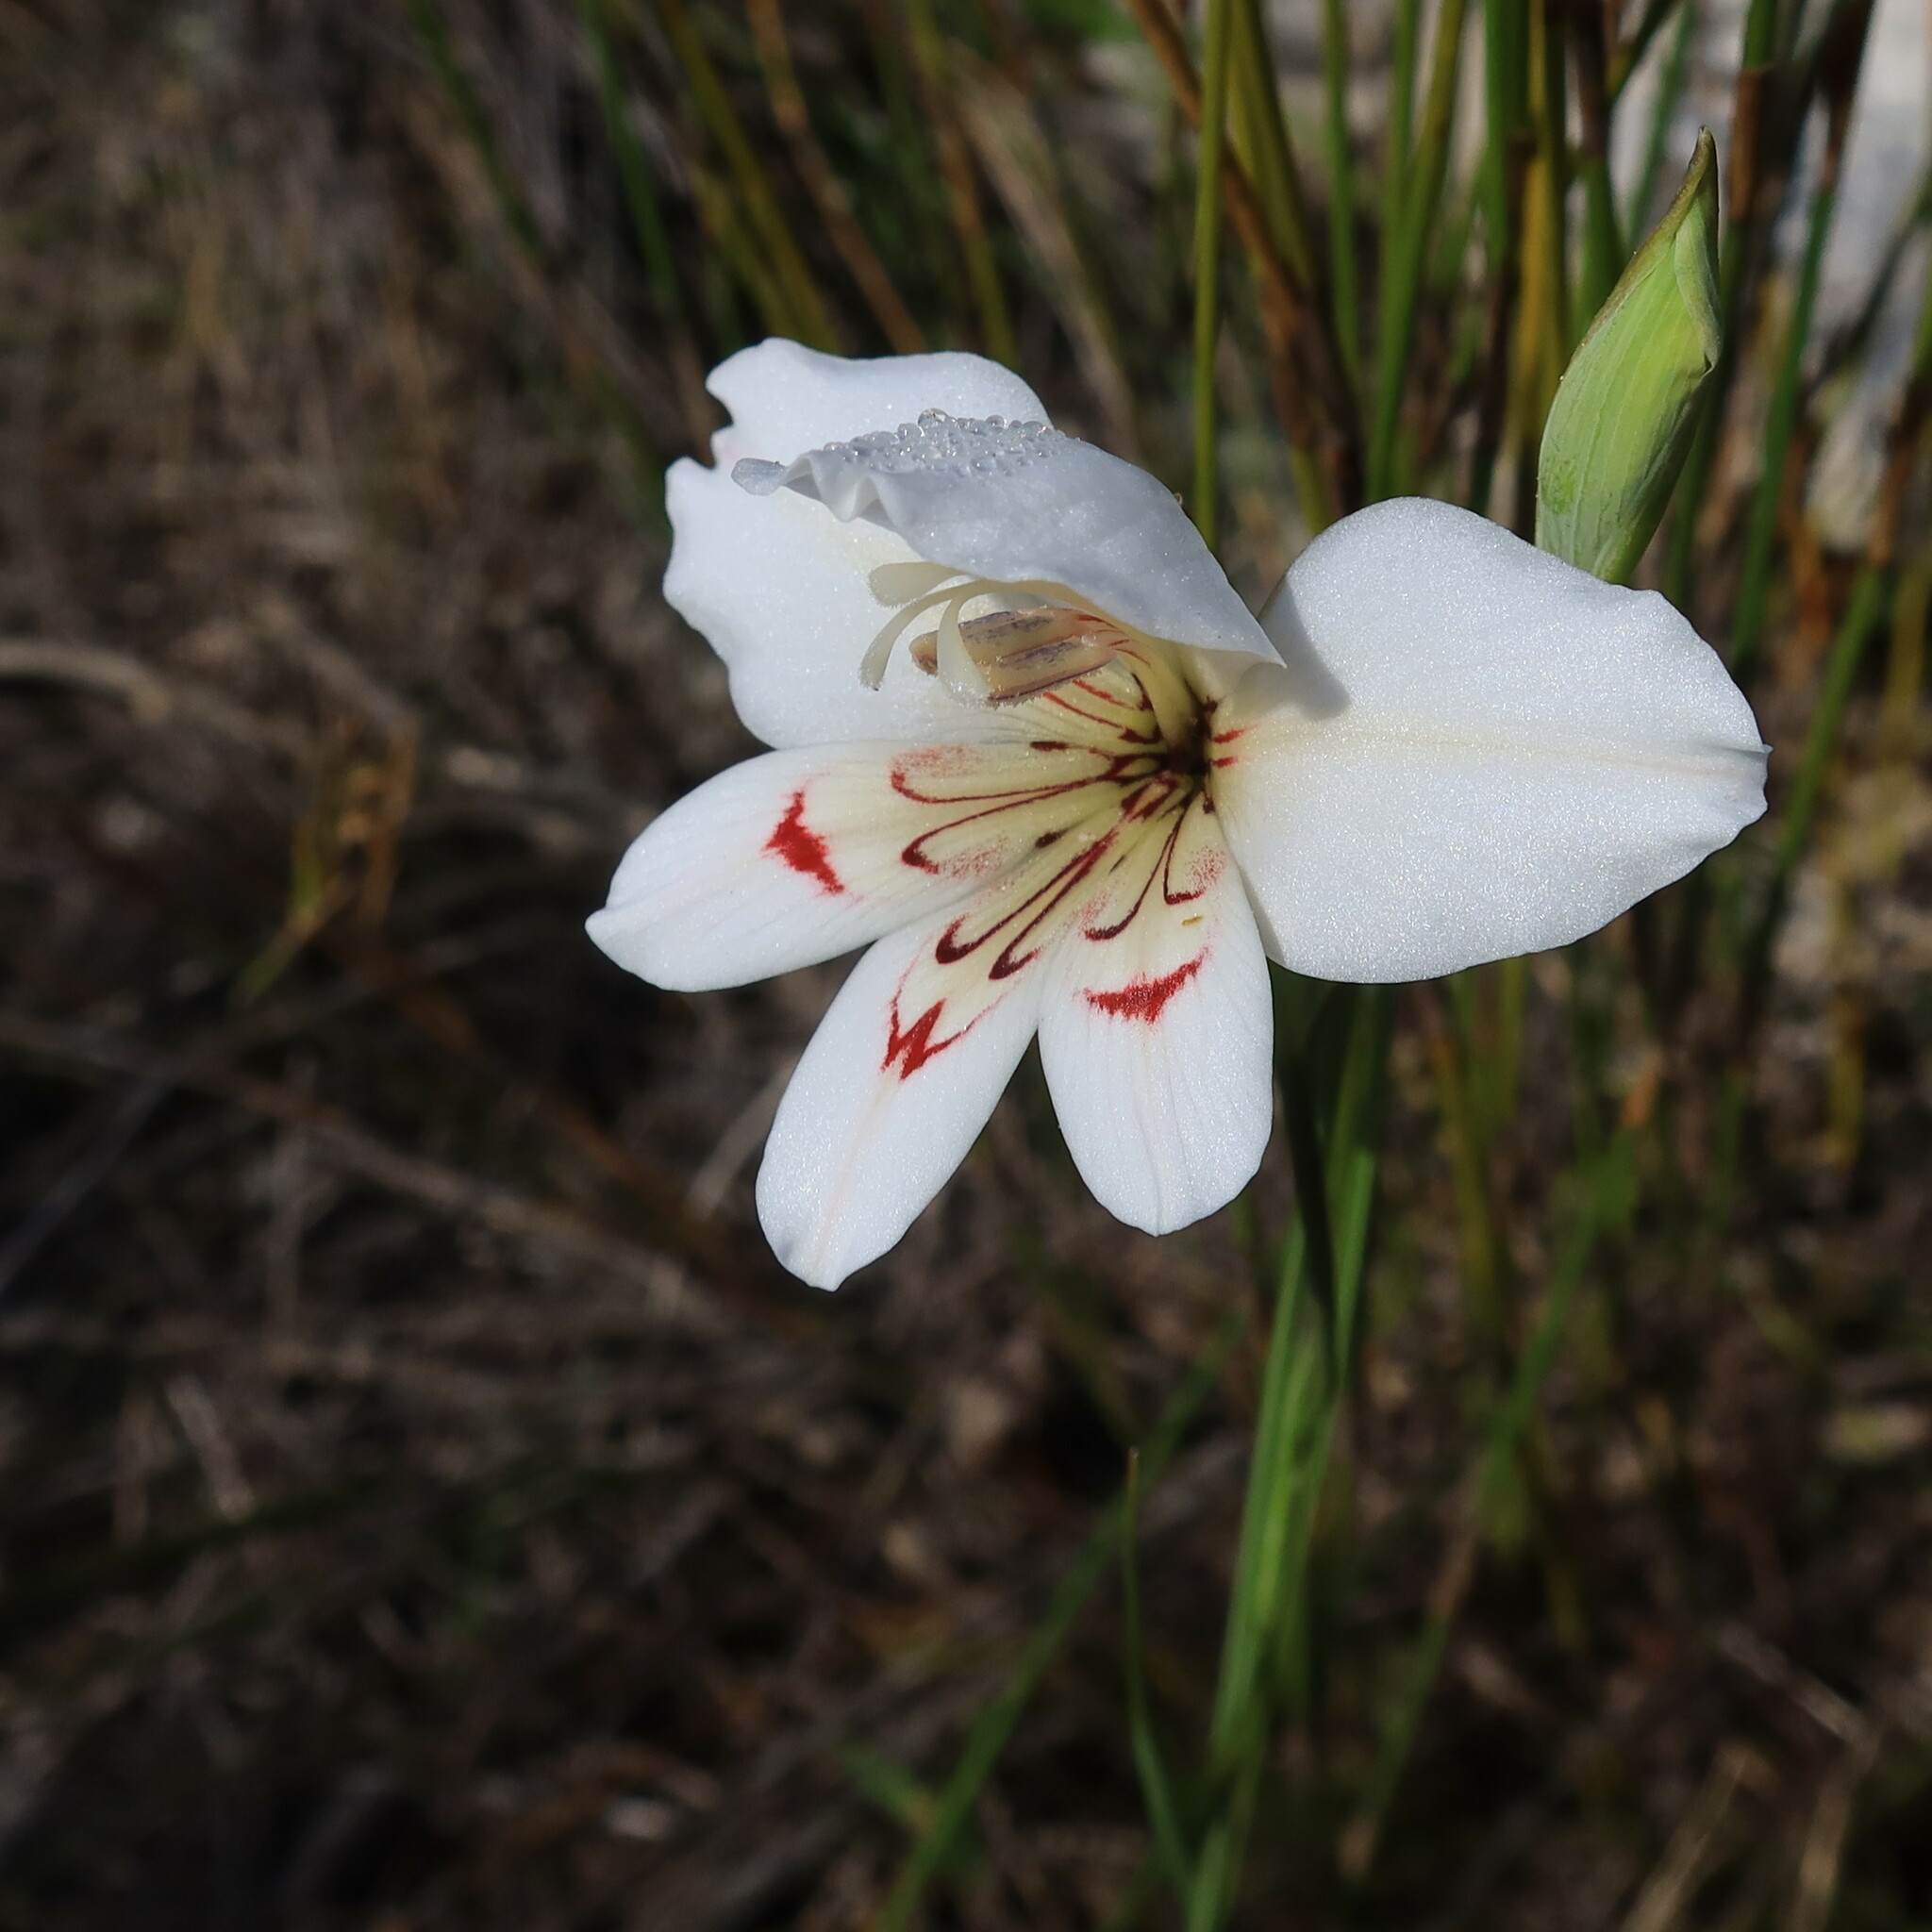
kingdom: Plantae
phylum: Tracheophyta
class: Liliopsida
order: Asparagales
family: Iridaceae
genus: Gladiolus
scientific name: Gladiolus debilis
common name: Painted-lady
